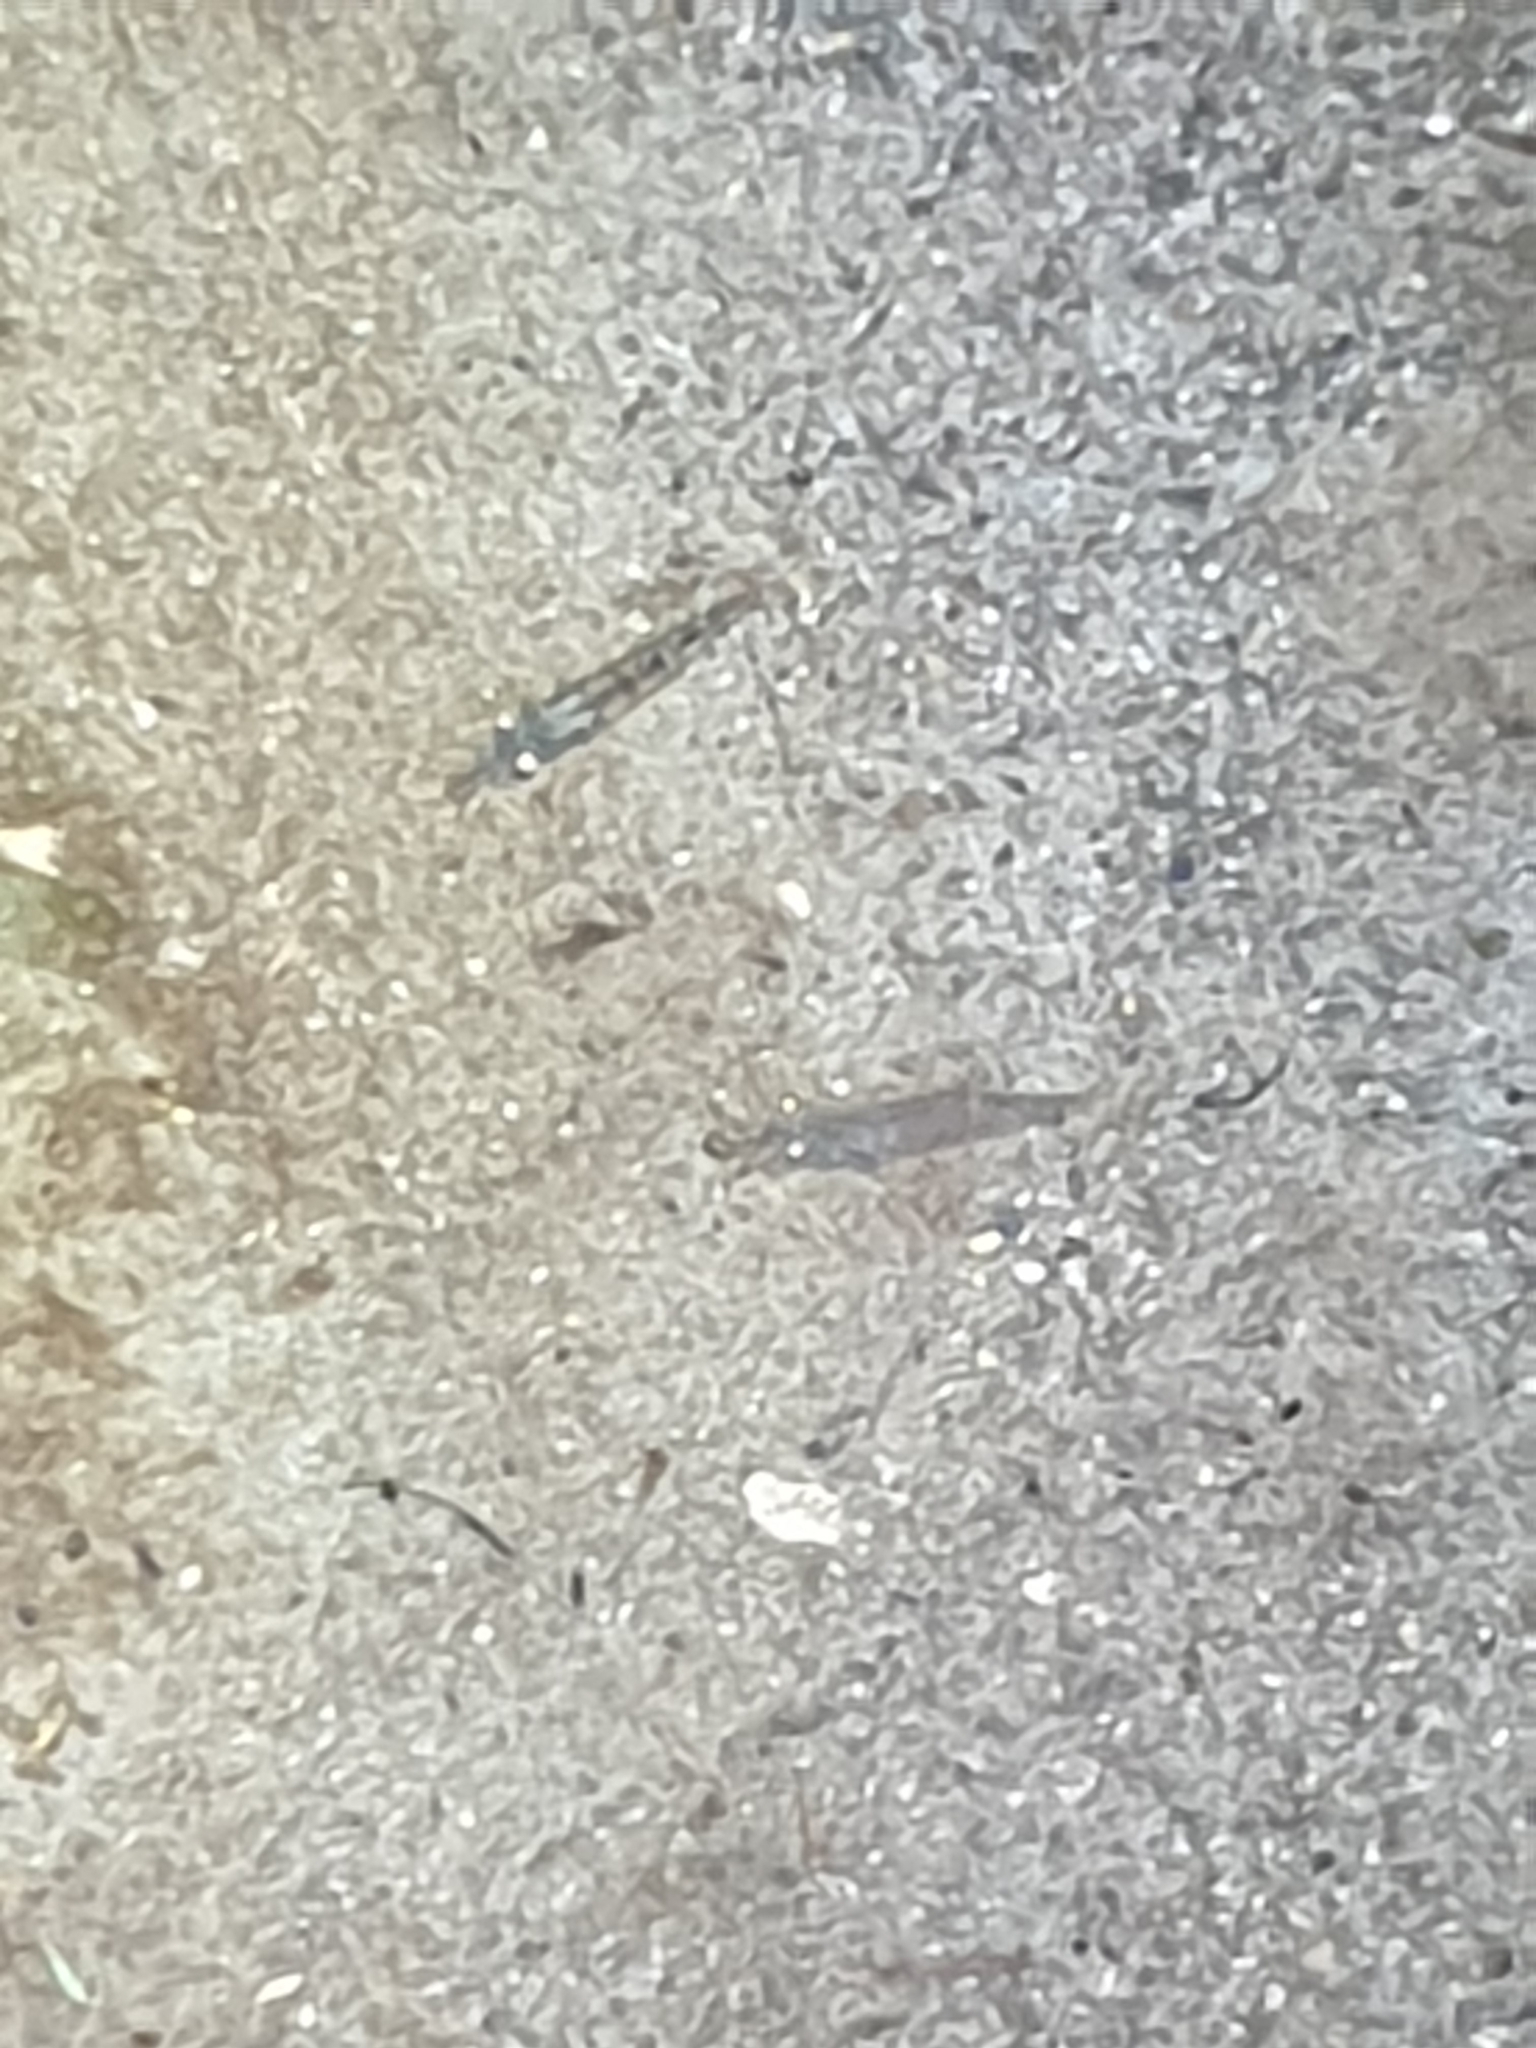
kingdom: Animalia
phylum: Arthropoda
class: Malacostraca
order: Decapoda
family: Atyidae
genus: Paratya
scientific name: Paratya curvirostris
